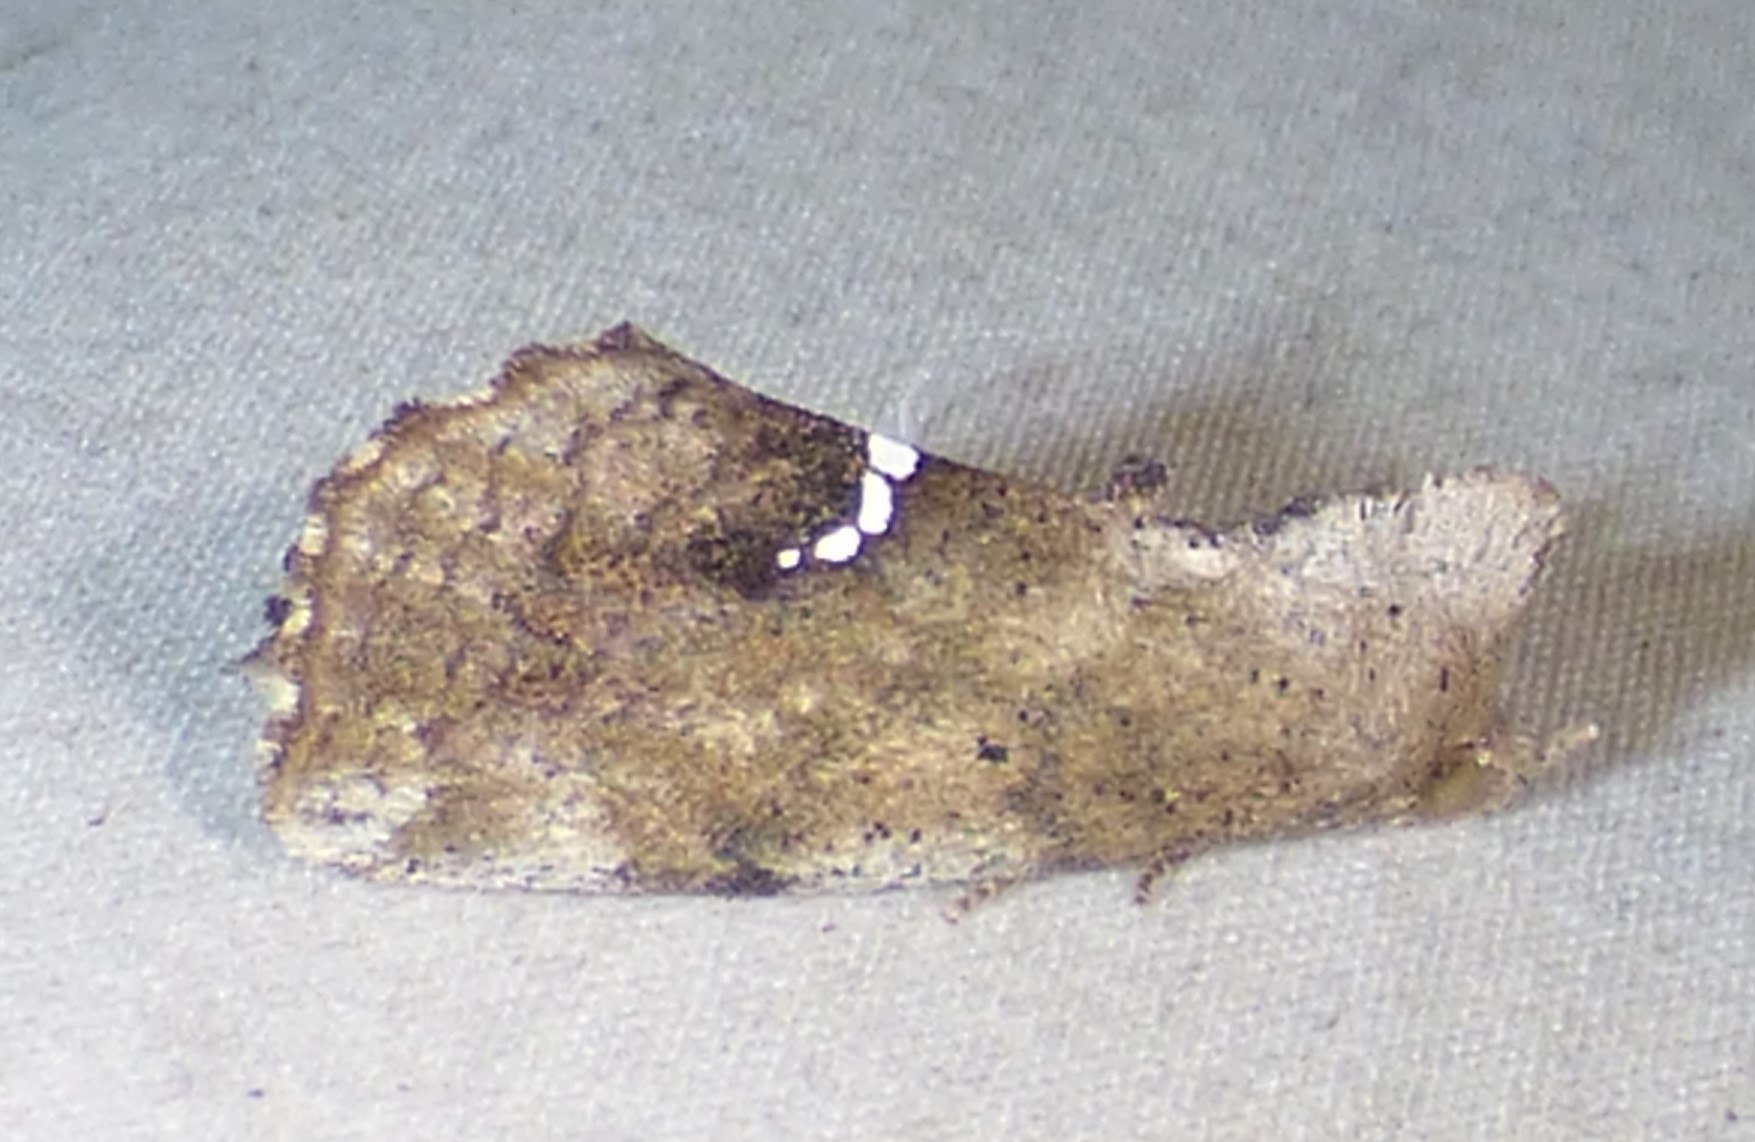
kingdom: Animalia
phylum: Arthropoda
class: Insecta
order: Lepidoptera
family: Erebidae
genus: Hypsoropha
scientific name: Hypsoropha hormos
